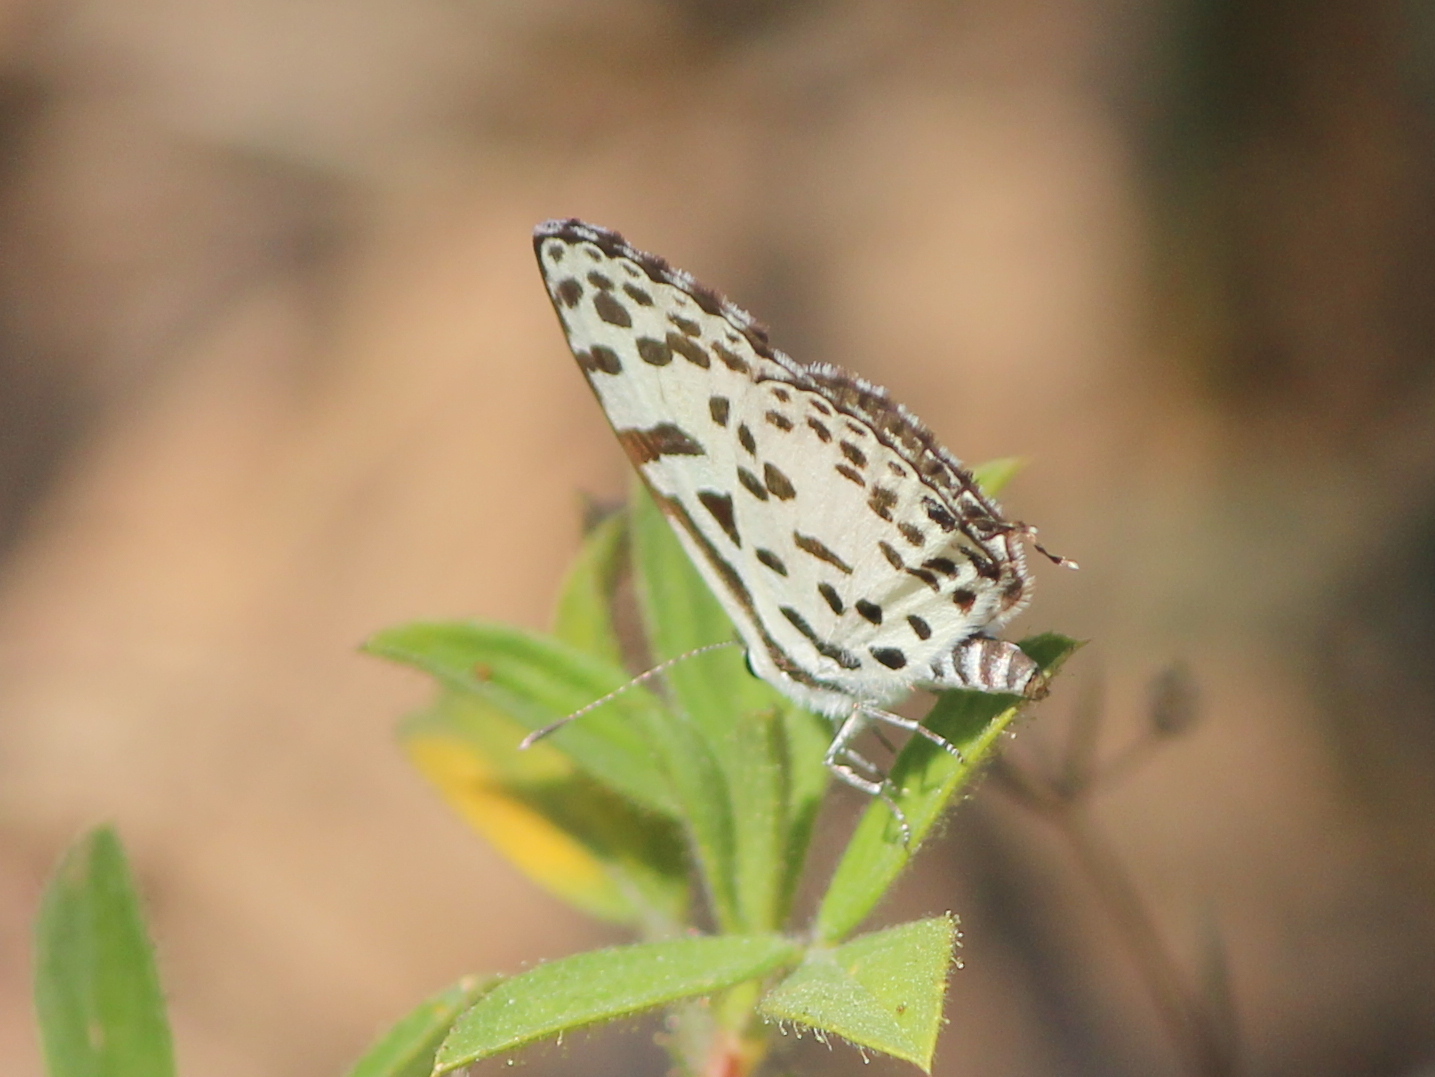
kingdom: Animalia
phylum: Arthropoda
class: Insecta
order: Lepidoptera
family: Lycaenidae
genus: Castalius
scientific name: Castalius rosimon
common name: Common pierrot
